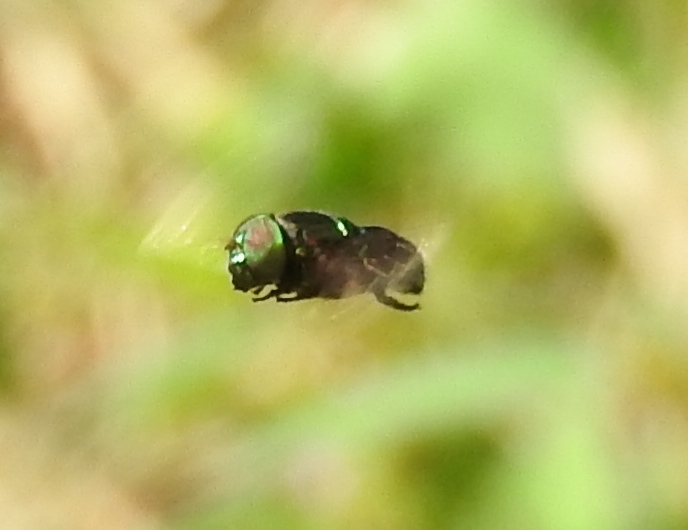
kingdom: Animalia
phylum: Arthropoda
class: Insecta
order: Diptera
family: Syrphidae
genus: Ornidia
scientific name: Ornidia
